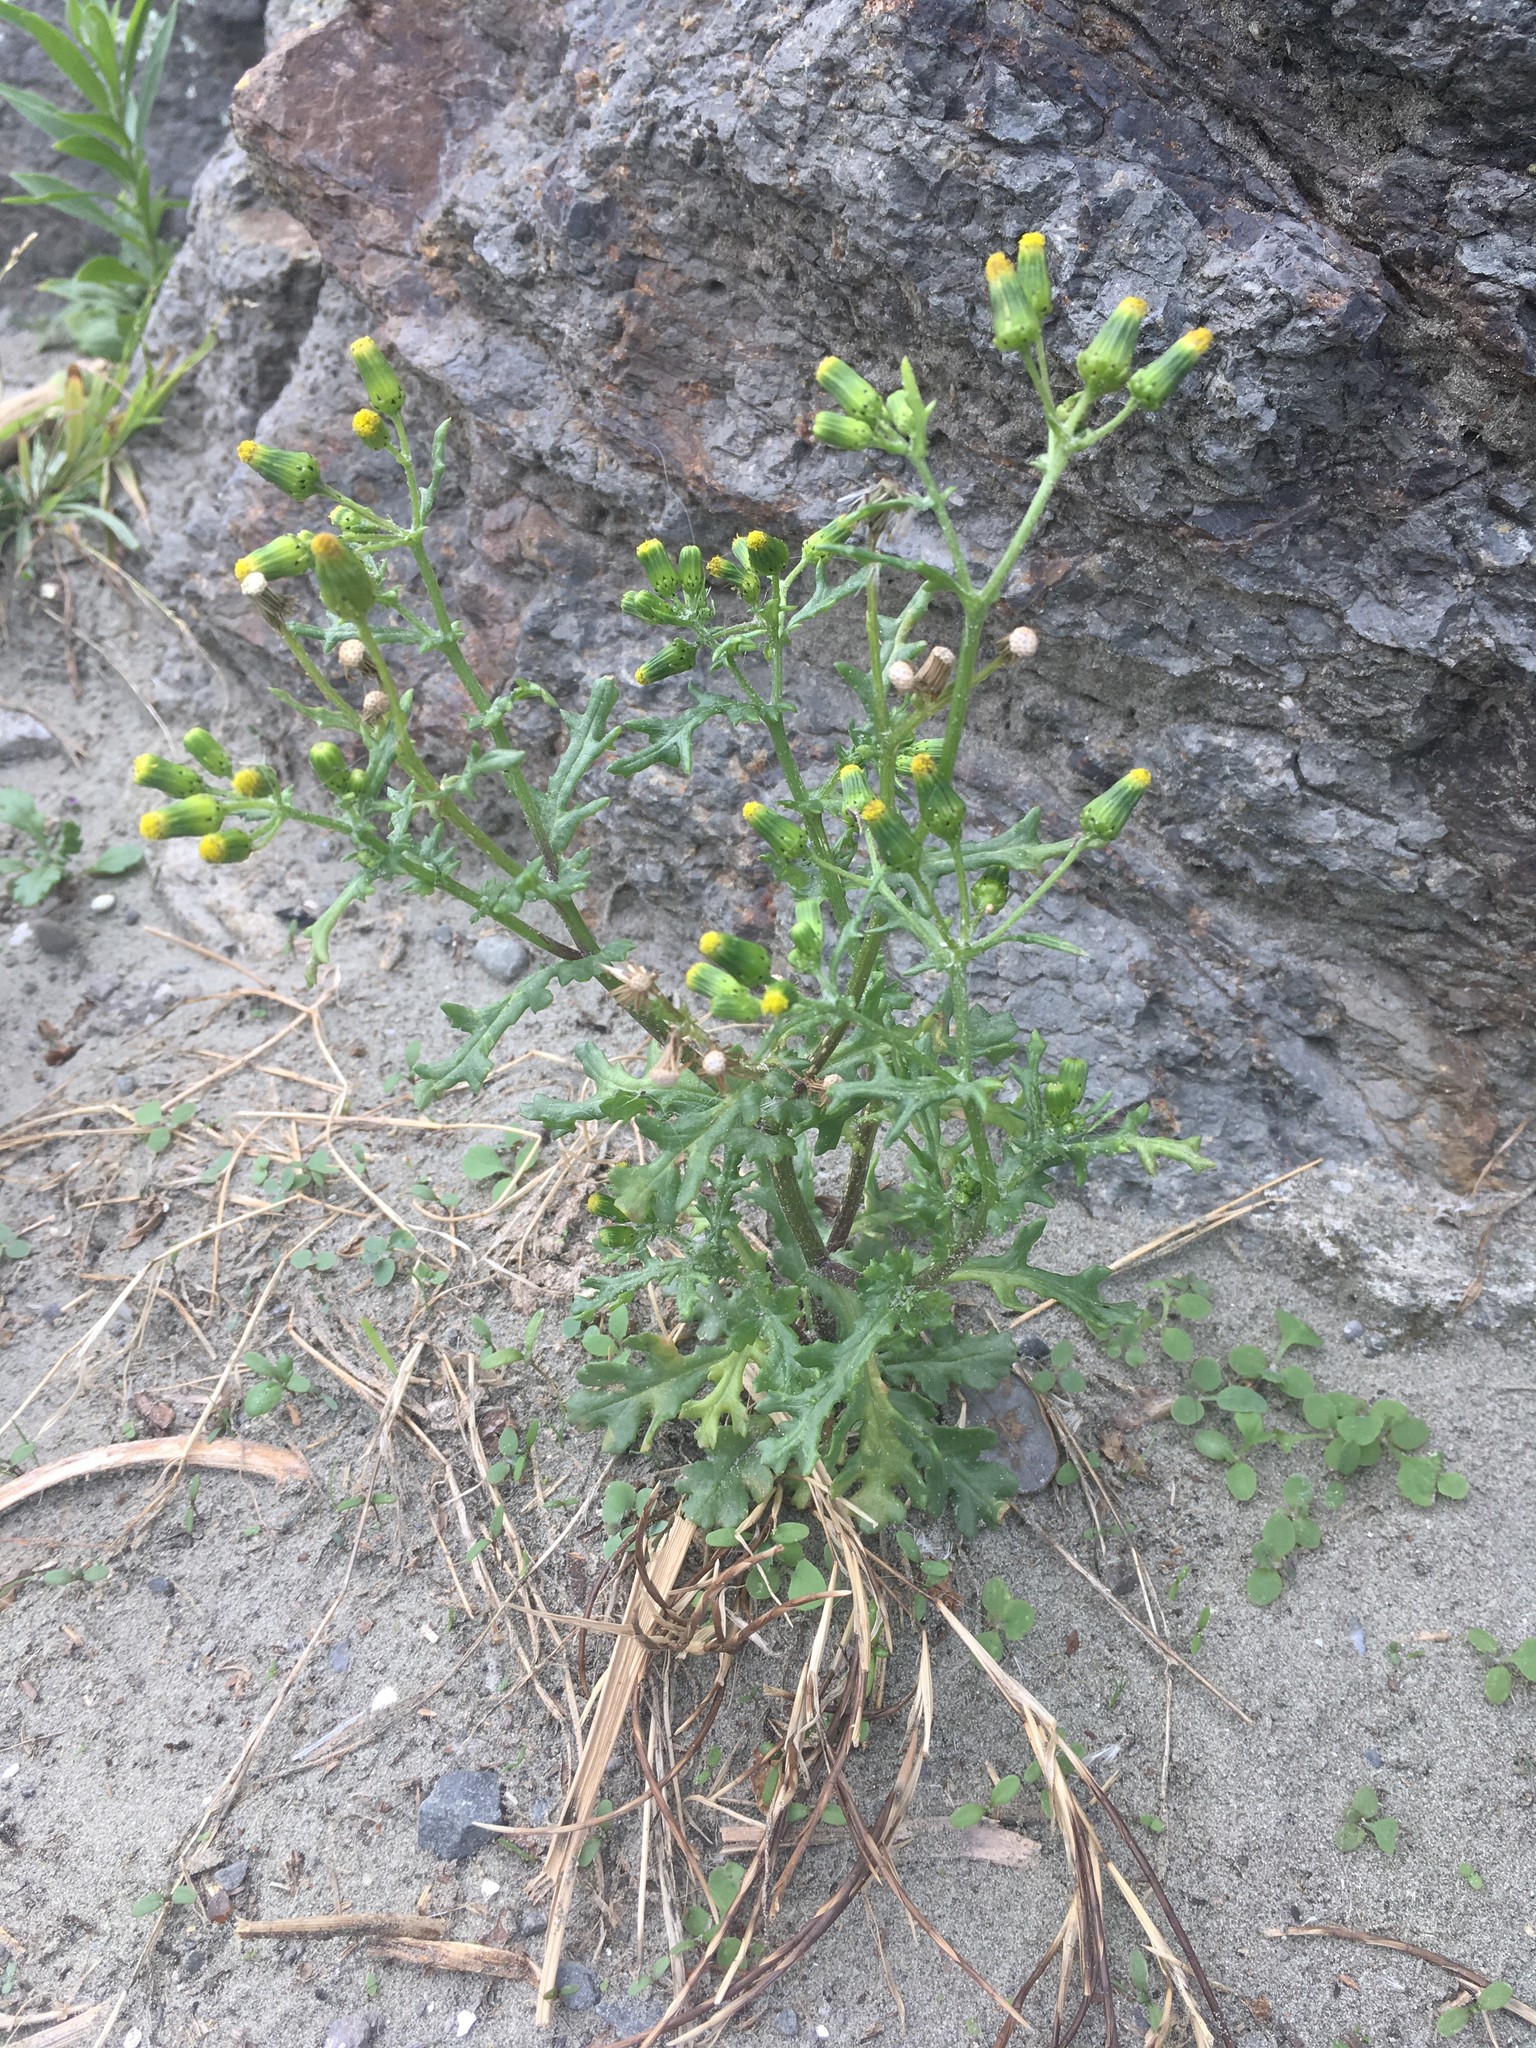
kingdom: Plantae
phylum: Tracheophyta
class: Magnoliopsida
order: Asterales
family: Asteraceae
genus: Senecio
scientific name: Senecio vulgaris
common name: Old-man-in-the-spring
